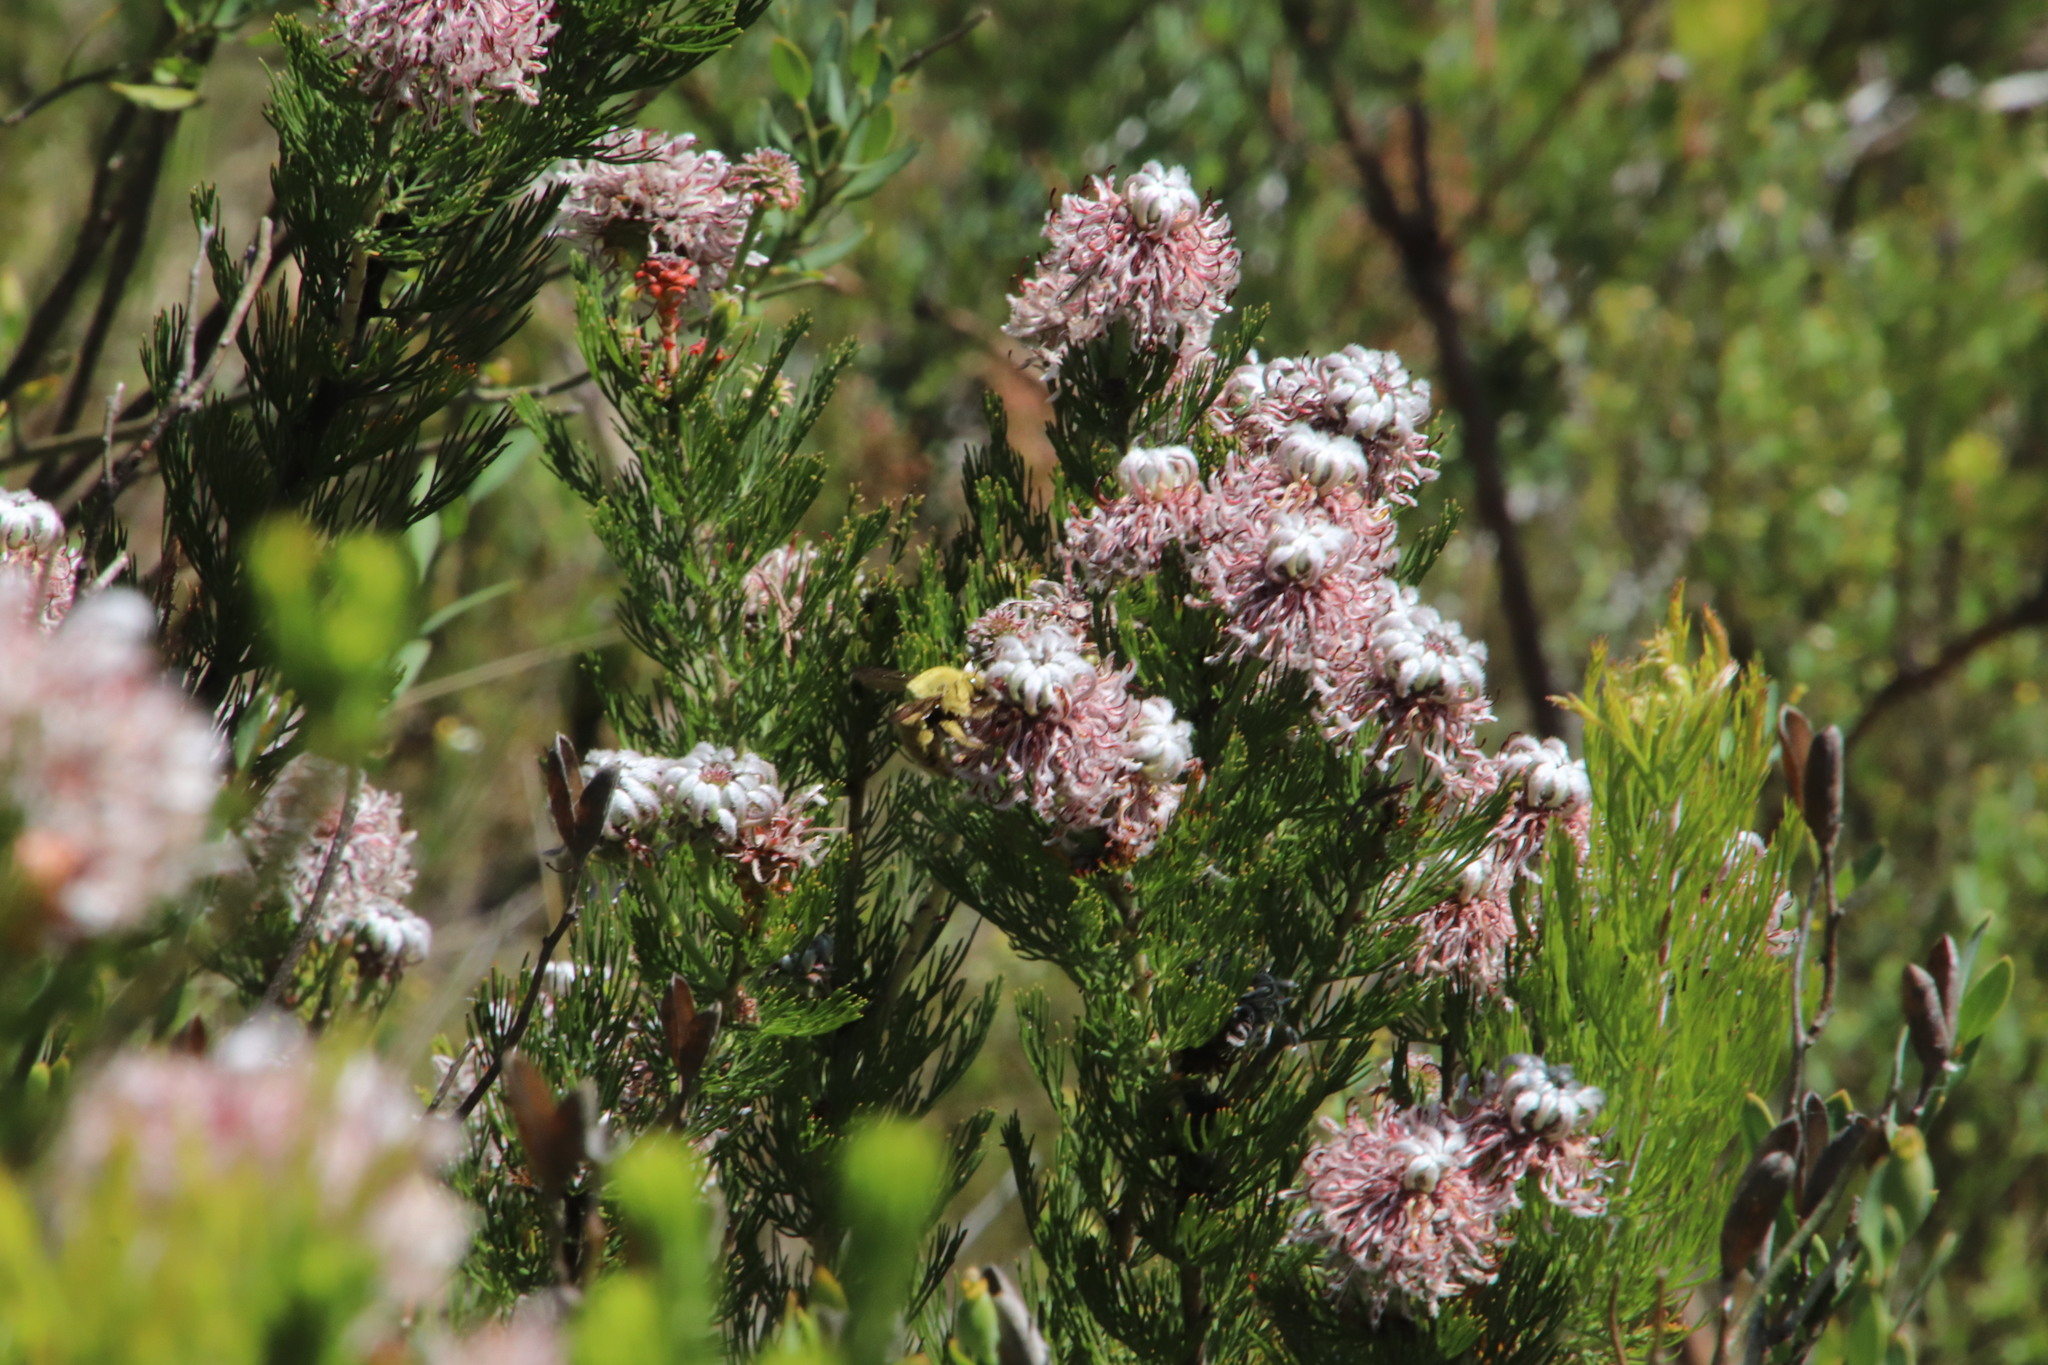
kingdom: Plantae
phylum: Tracheophyta
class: Magnoliopsida
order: Proteales
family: Proteaceae
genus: Serruria
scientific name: Serruria acrocarpa
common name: Common rootstock spiderhead
